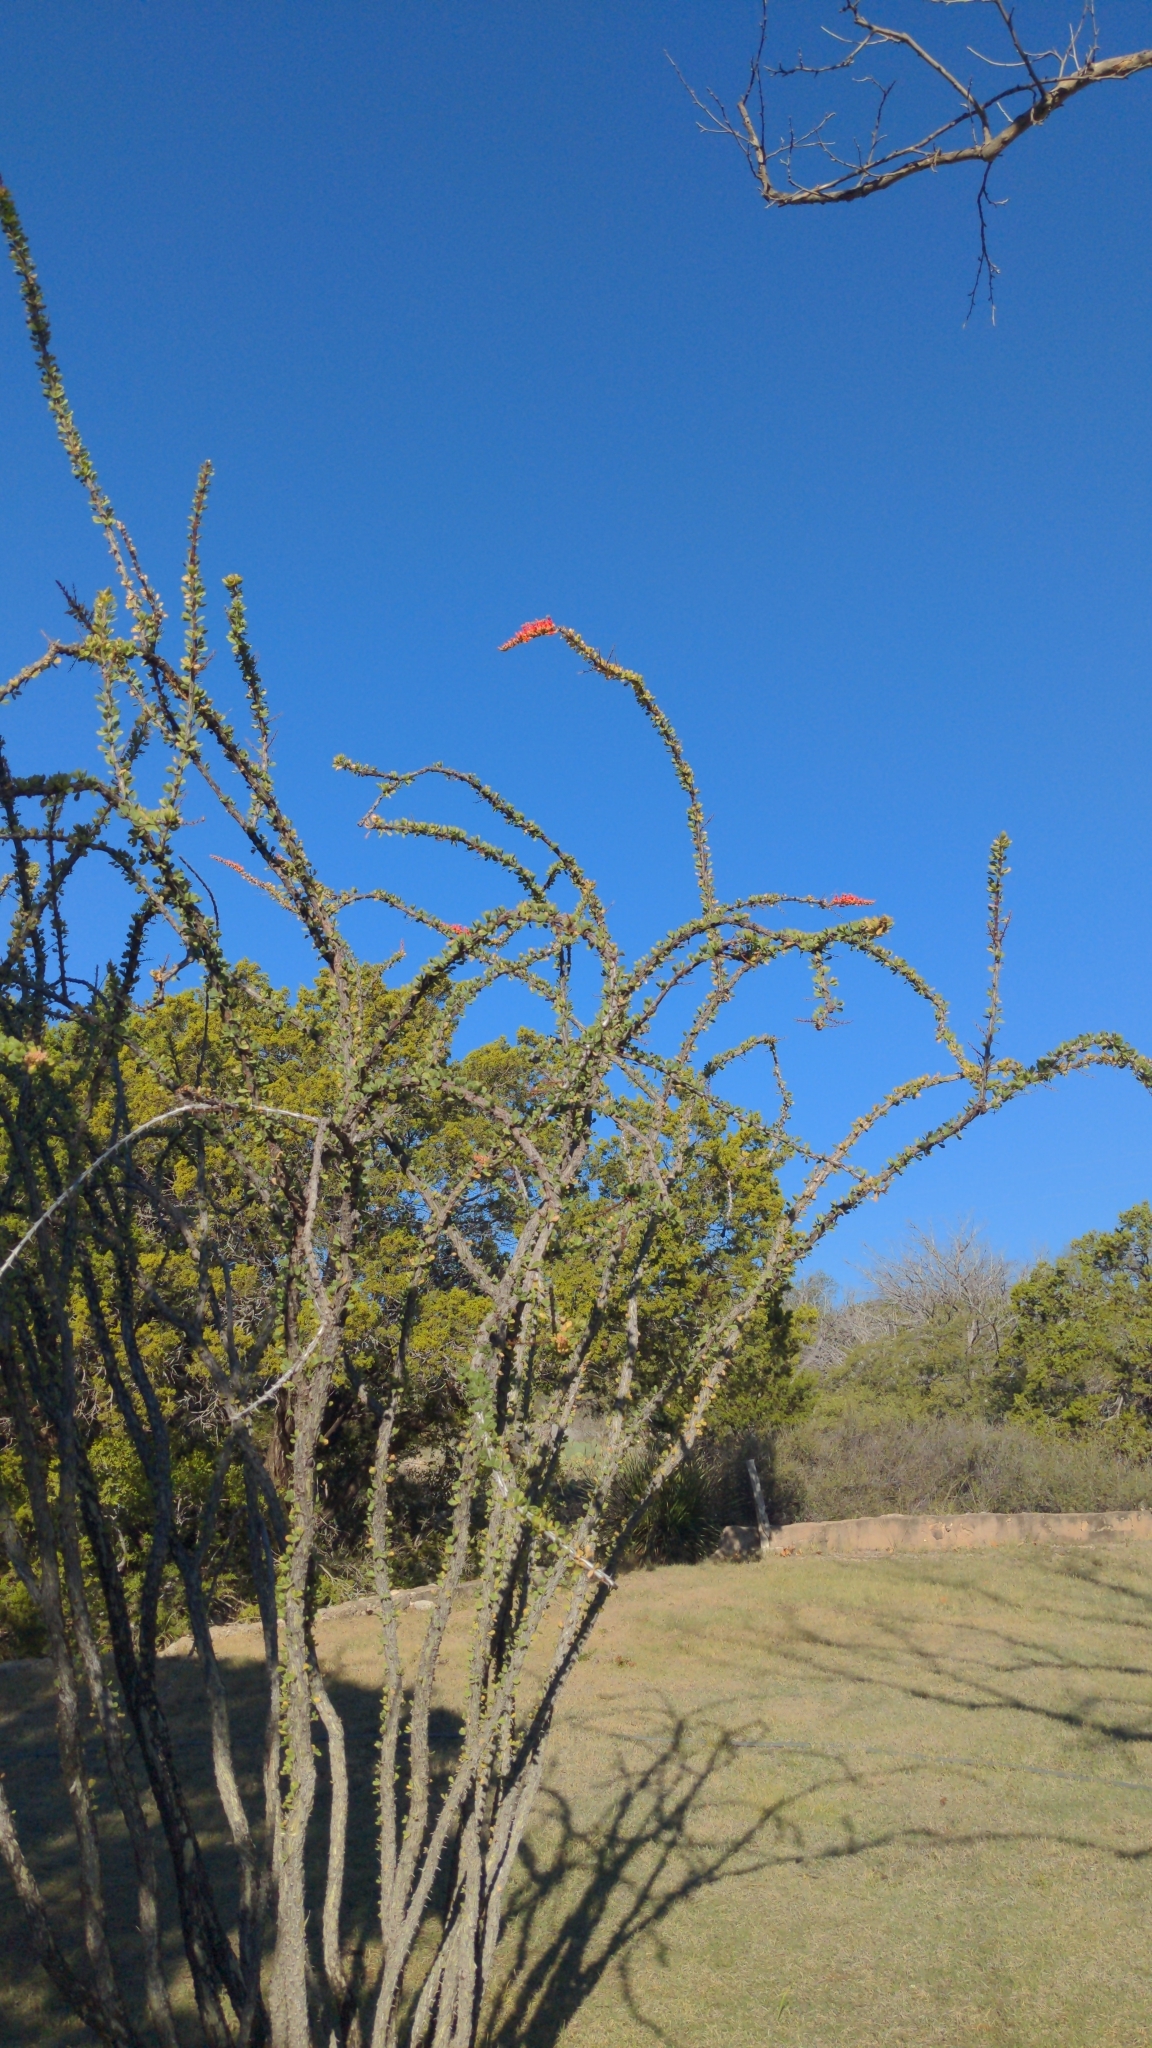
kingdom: Plantae
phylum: Tracheophyta
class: Magnoliopsida
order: Ericales
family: Fouquieriaceae
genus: Fouquieria
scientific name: Fouquieria splendens
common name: Vine-cactus
